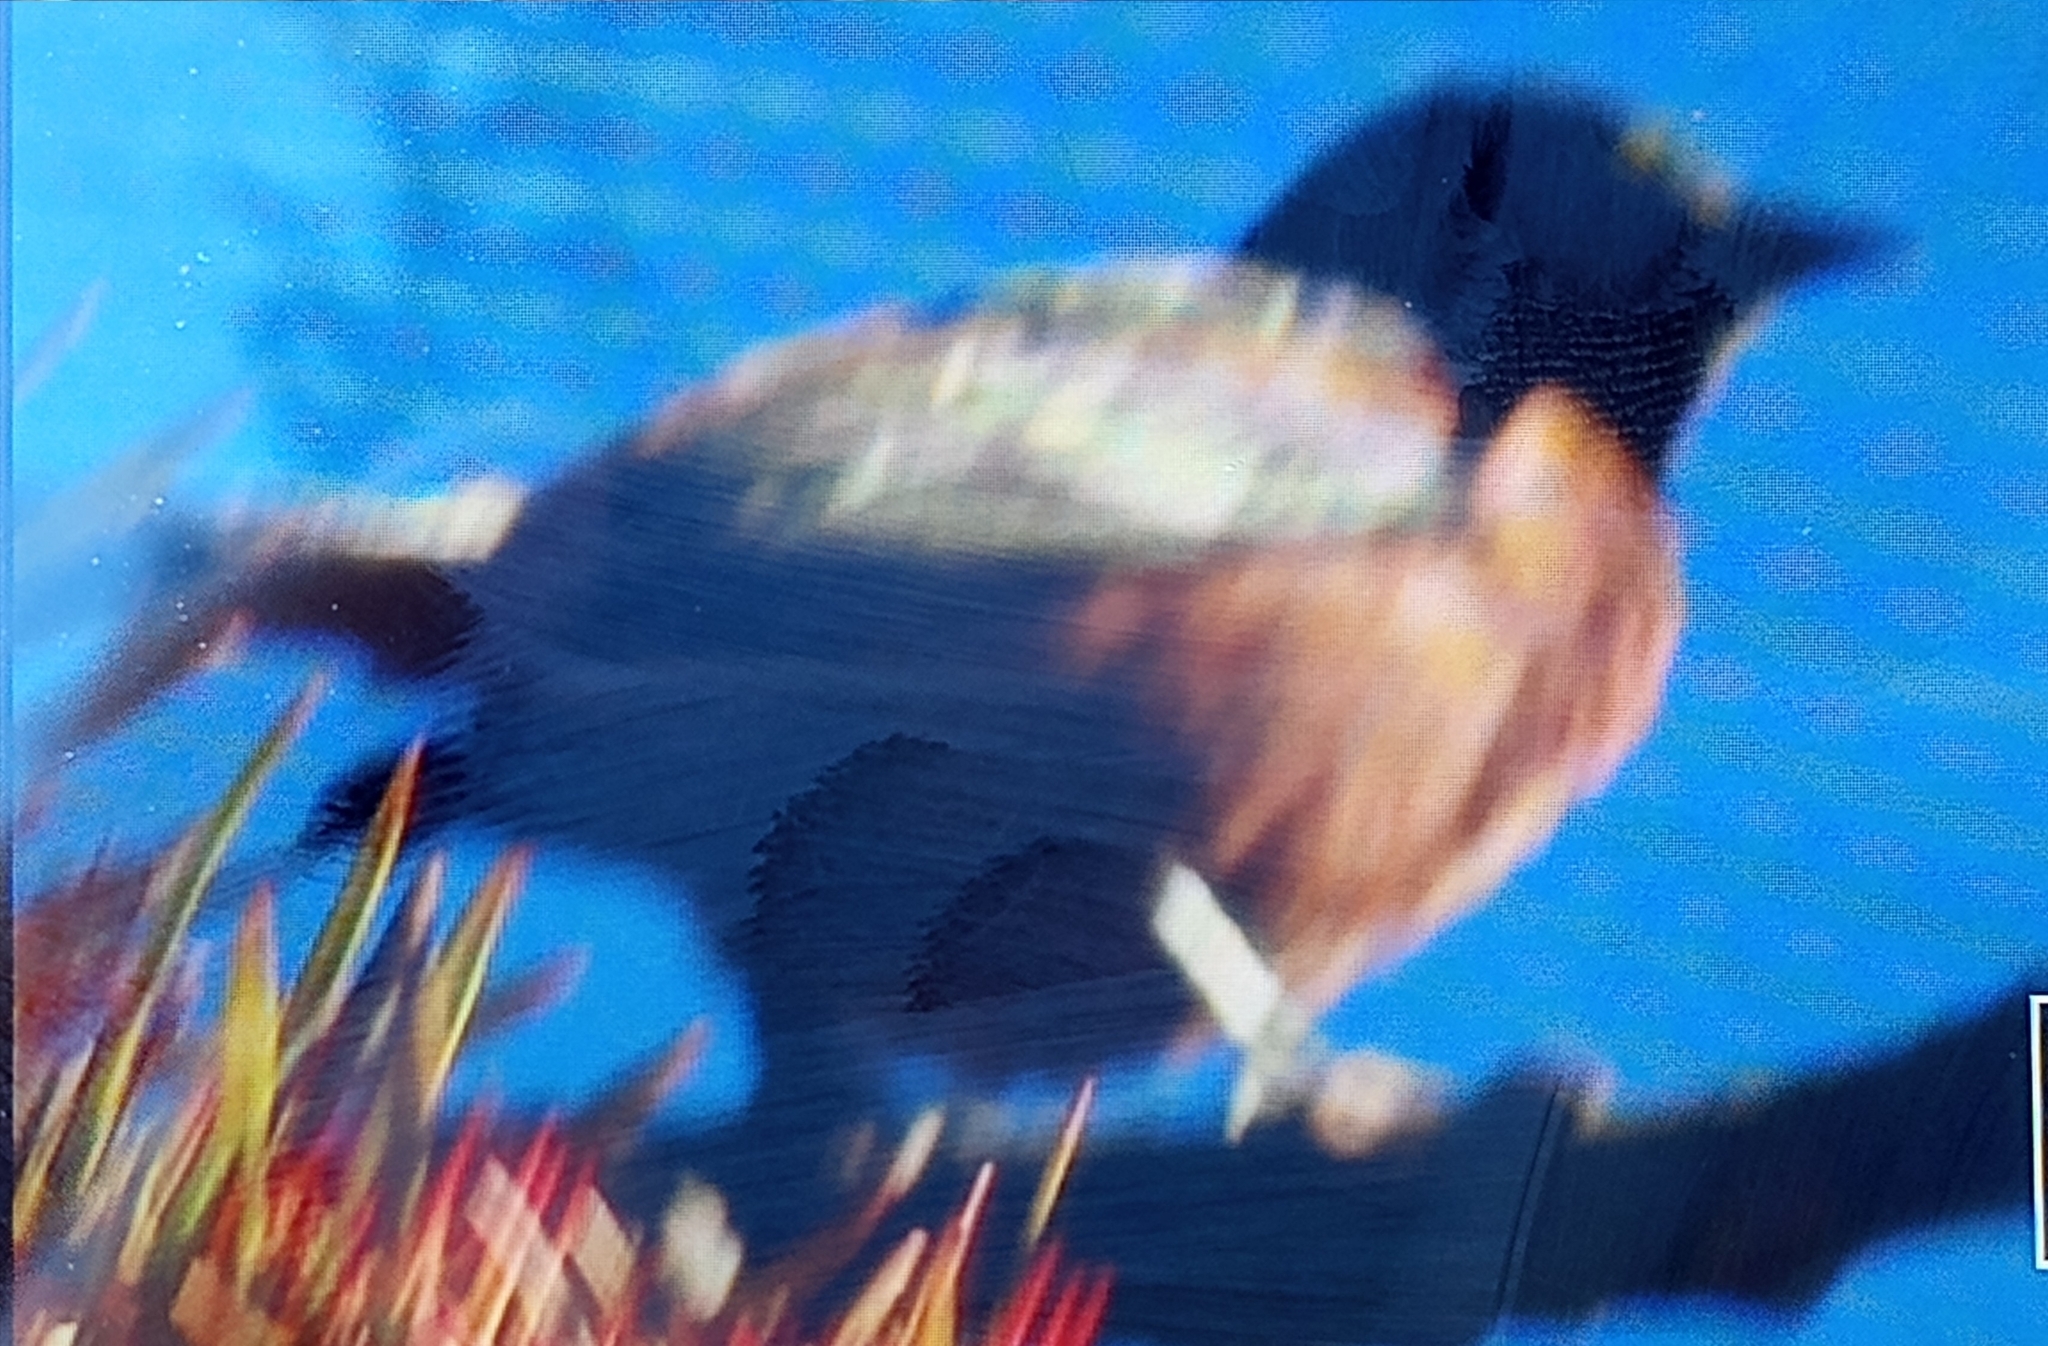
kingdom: Animalia
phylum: Chordata
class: Aves
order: Passeriformes
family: Icteridae
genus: Icterus
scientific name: Icterus spurius
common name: Orchard oriole
